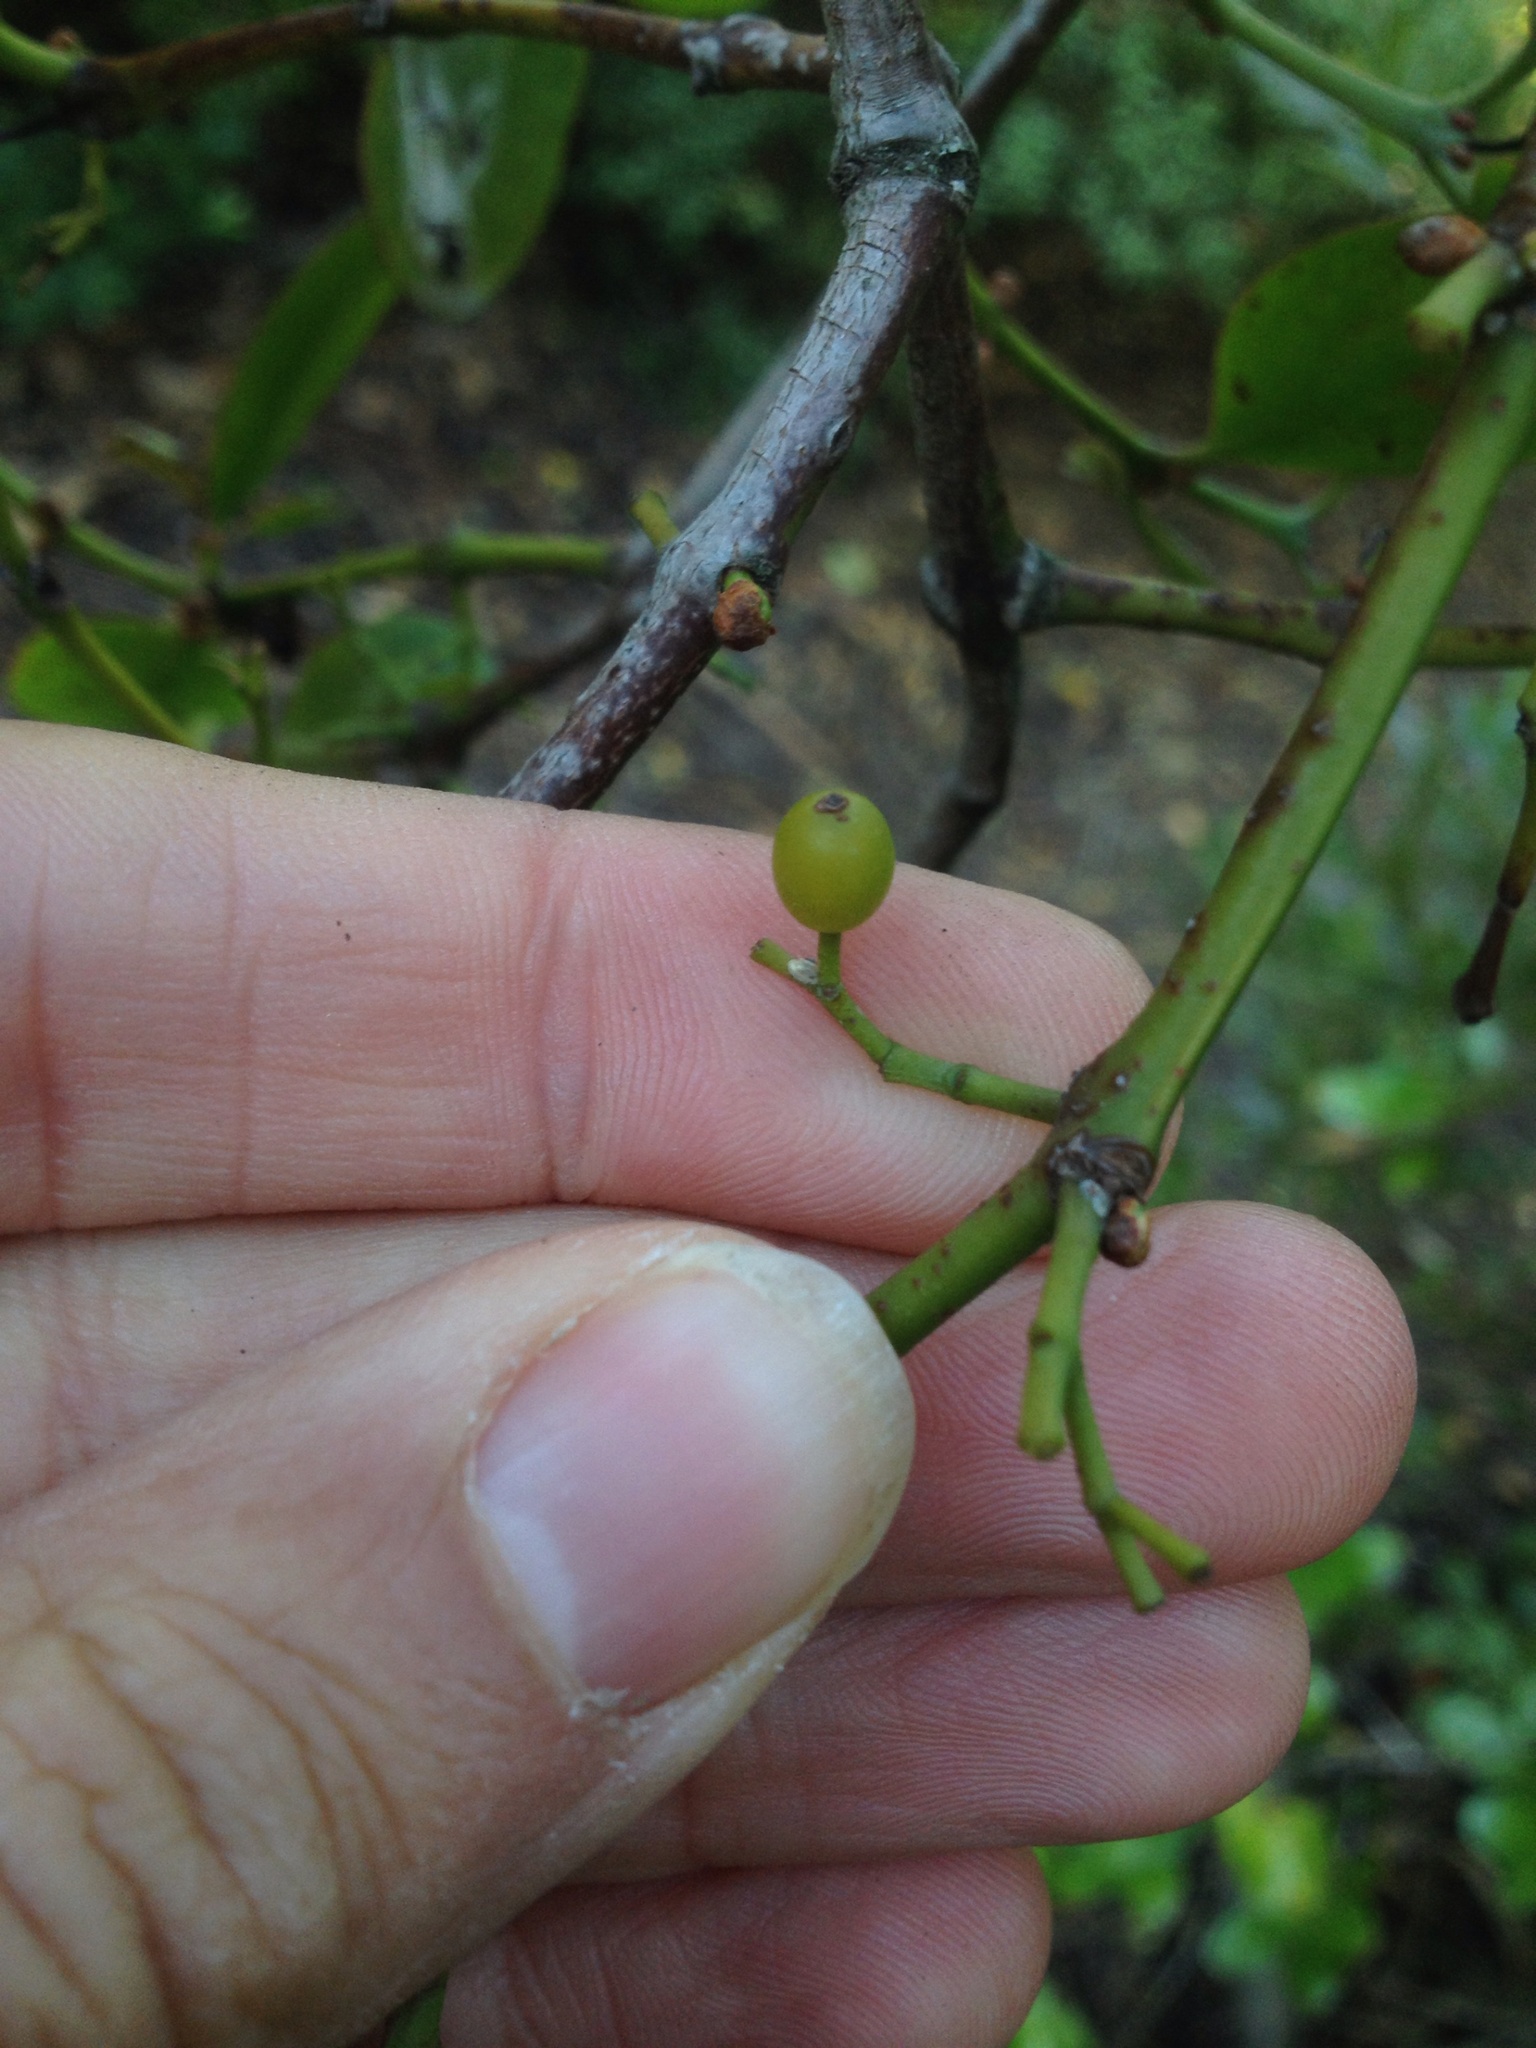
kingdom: Plantae
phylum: Tracheophyta
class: Magnoliopsida
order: Santalales
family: Loranthaceae
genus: Ileostylus
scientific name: Ileostylus micranthus
